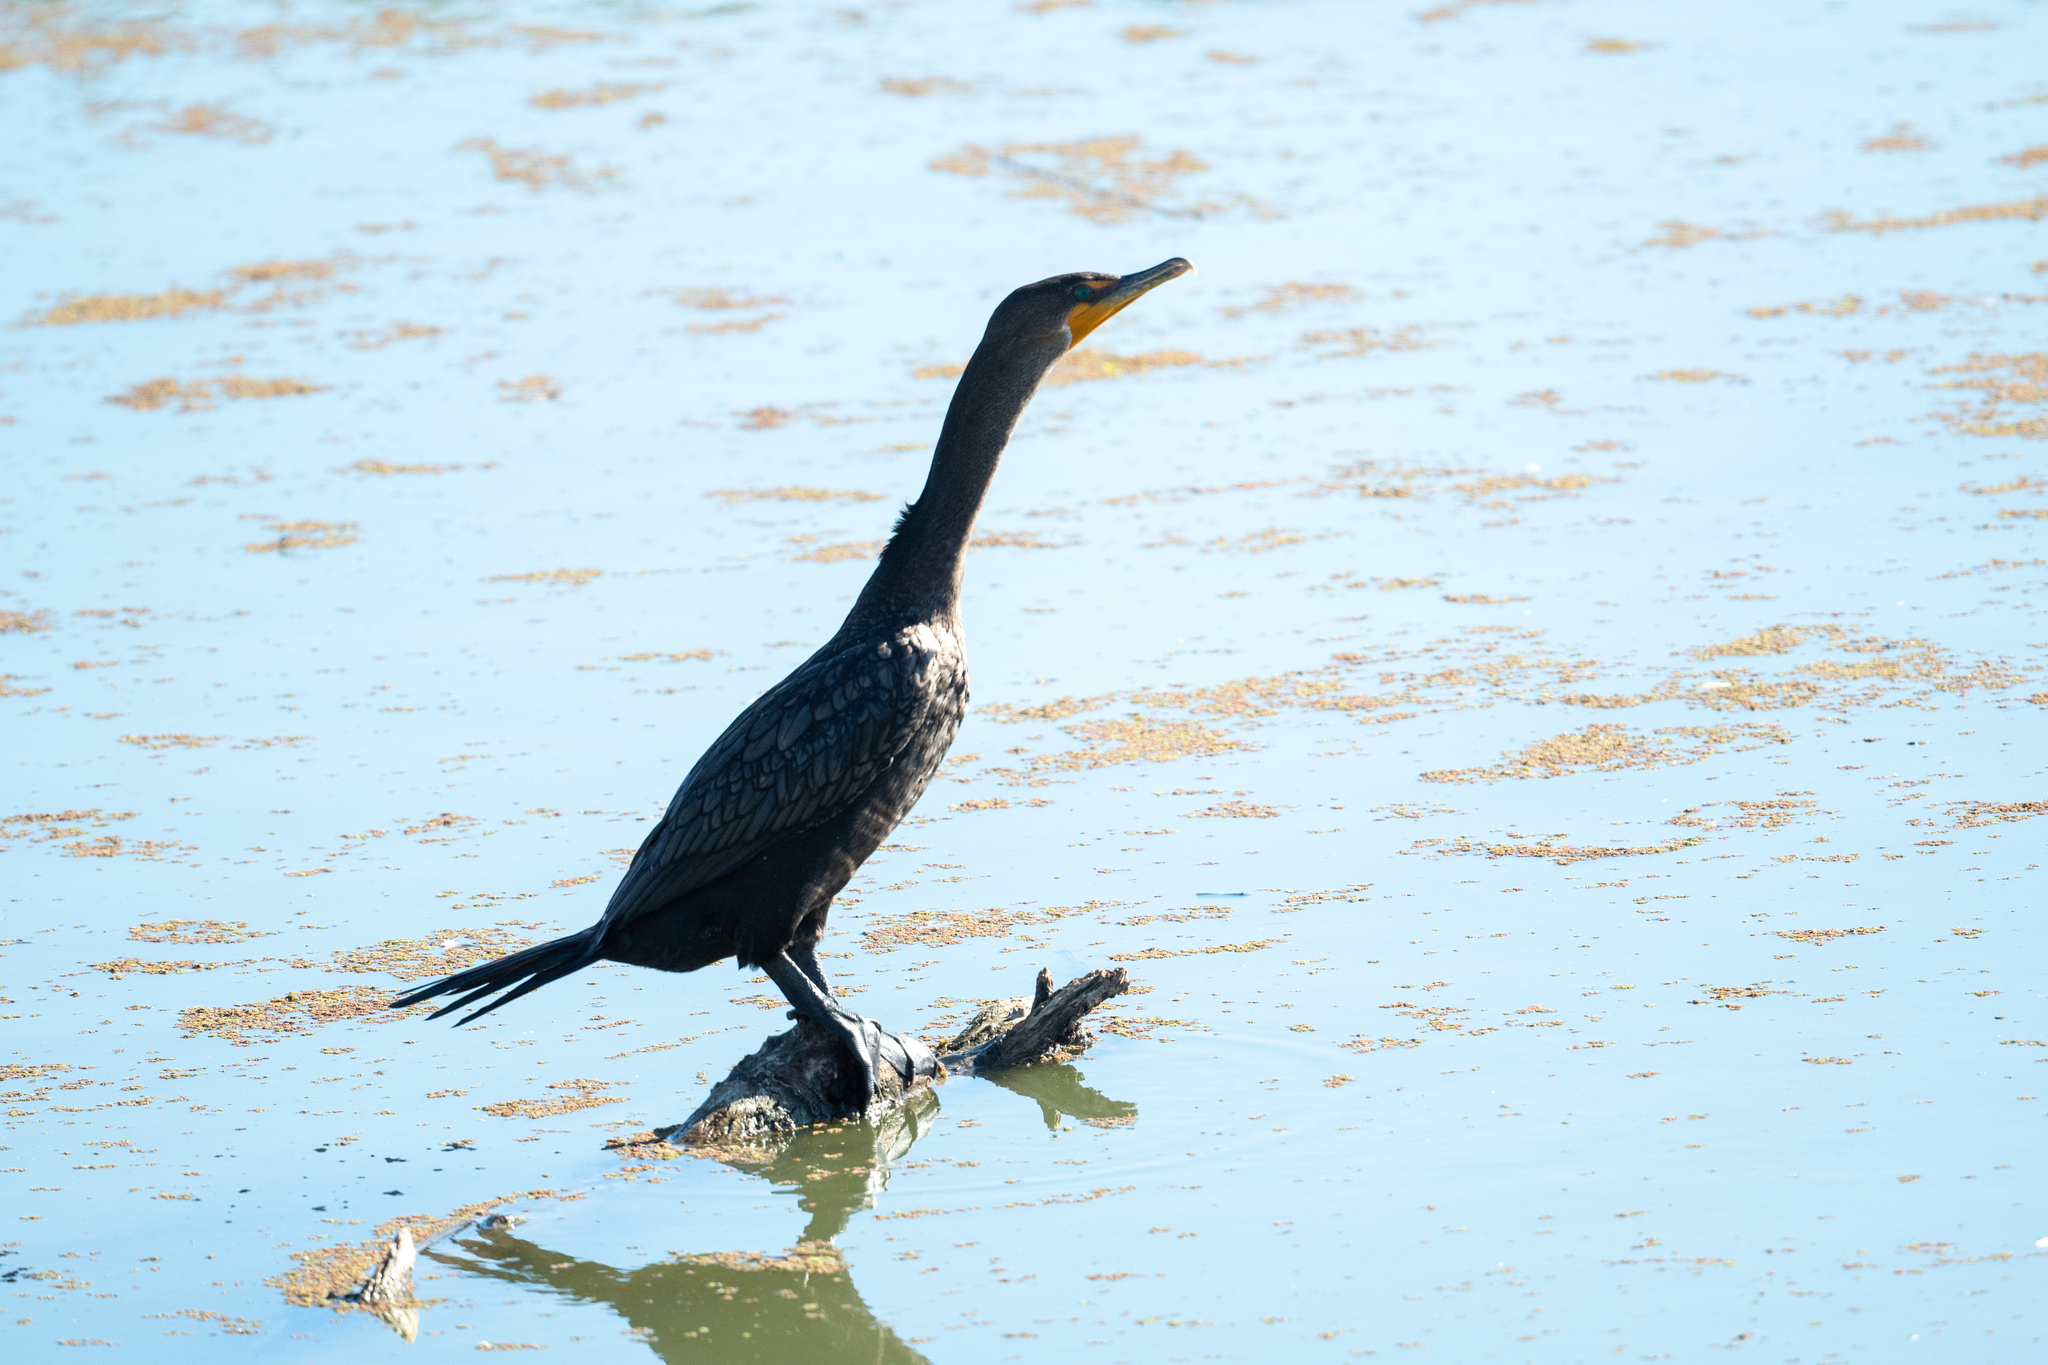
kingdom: Animalia
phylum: Chordata
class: Aves
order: Suliformes
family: Phalacrocoracidae
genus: Phalacrocorax
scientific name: Phalacrocorax auritus
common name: Double-crested cormorant
